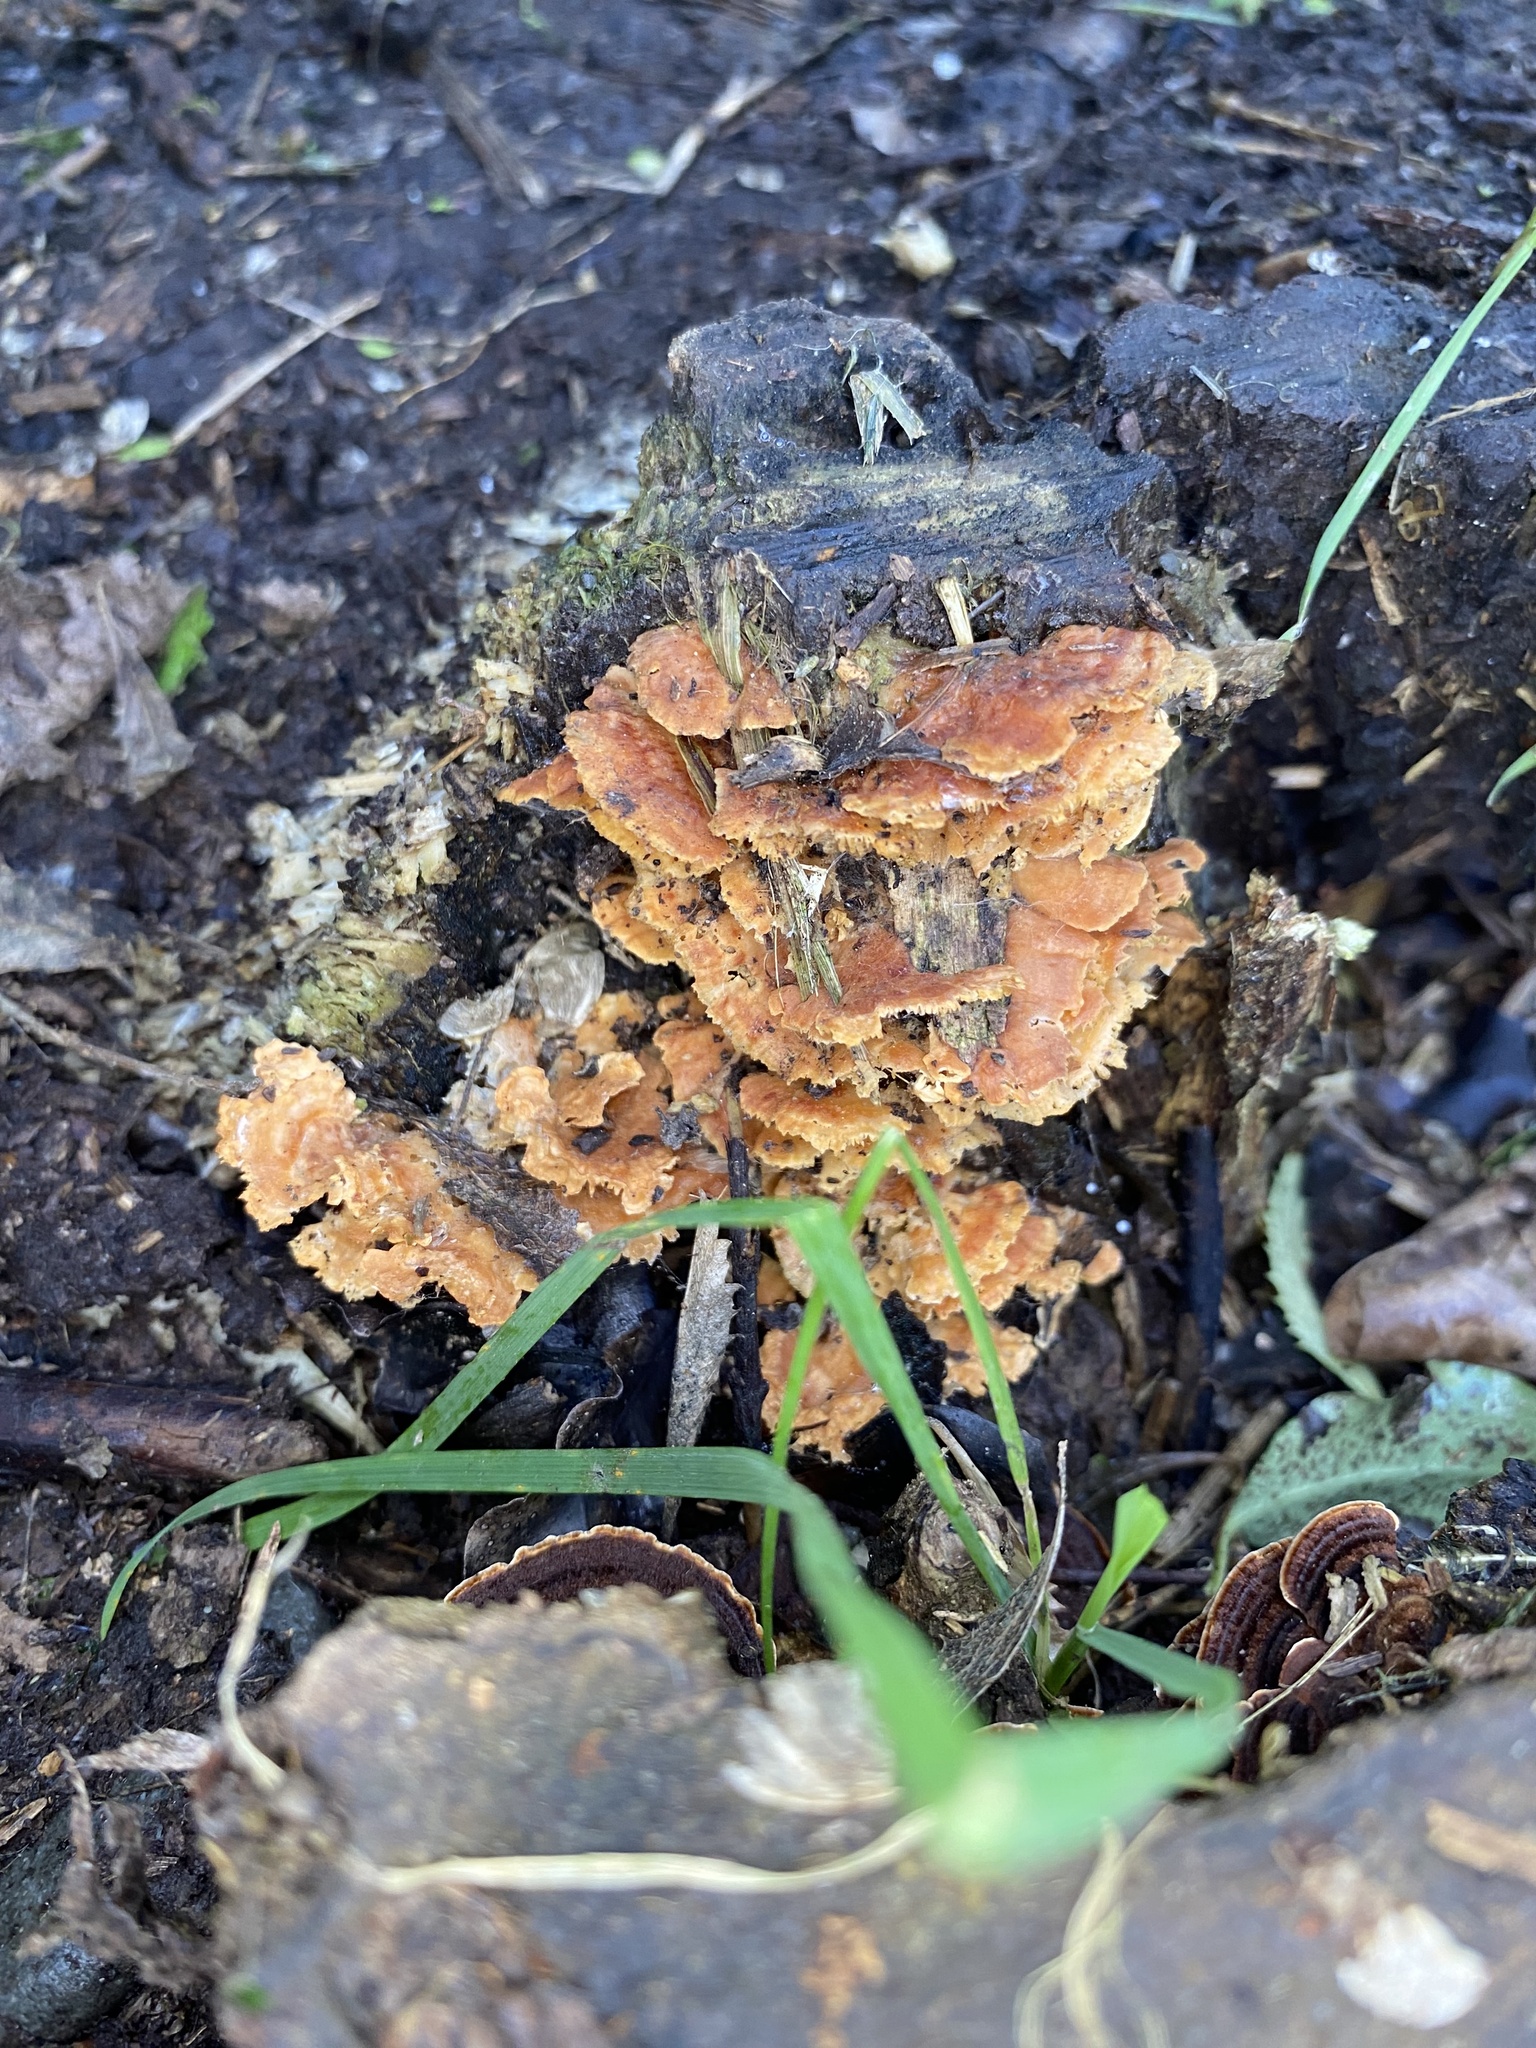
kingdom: Fungi
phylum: Basidiomycota
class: Agaricomycetes
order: Polyporales
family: Cerrenaceae
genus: Cerrena
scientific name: Cerrena zonata
